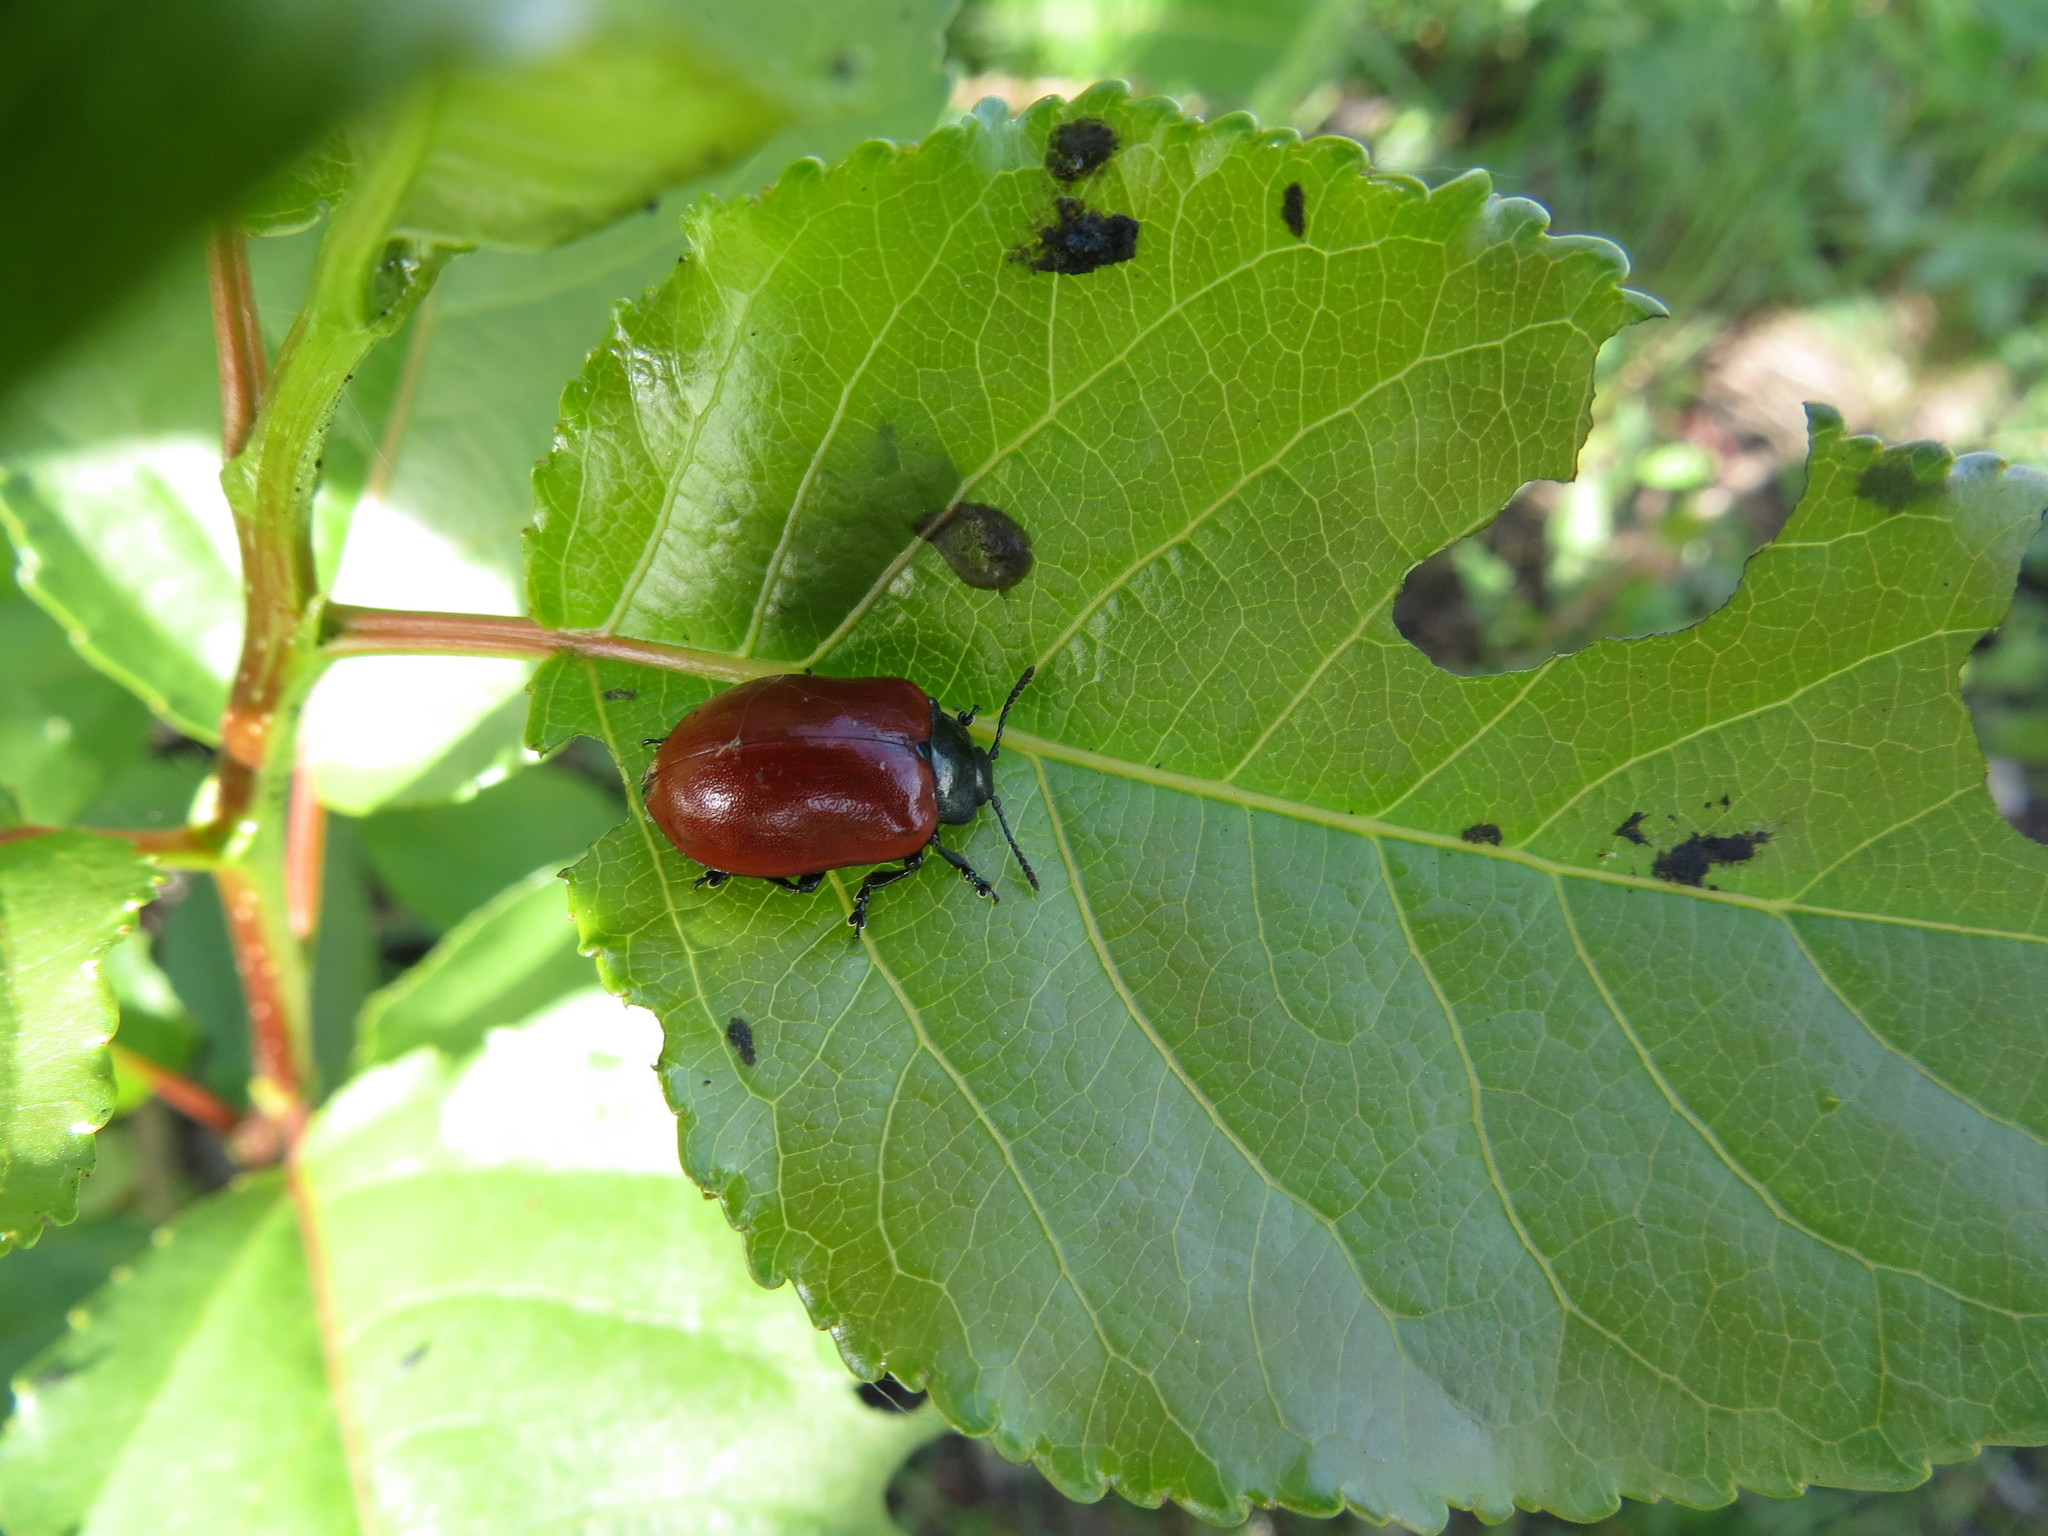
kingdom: Animalia
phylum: Arthropoda
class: Insecta
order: Coleoptera
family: Chrysomelidae
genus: Chrysomela
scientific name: Chrysomela populi
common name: Red poplar leaf beetle
